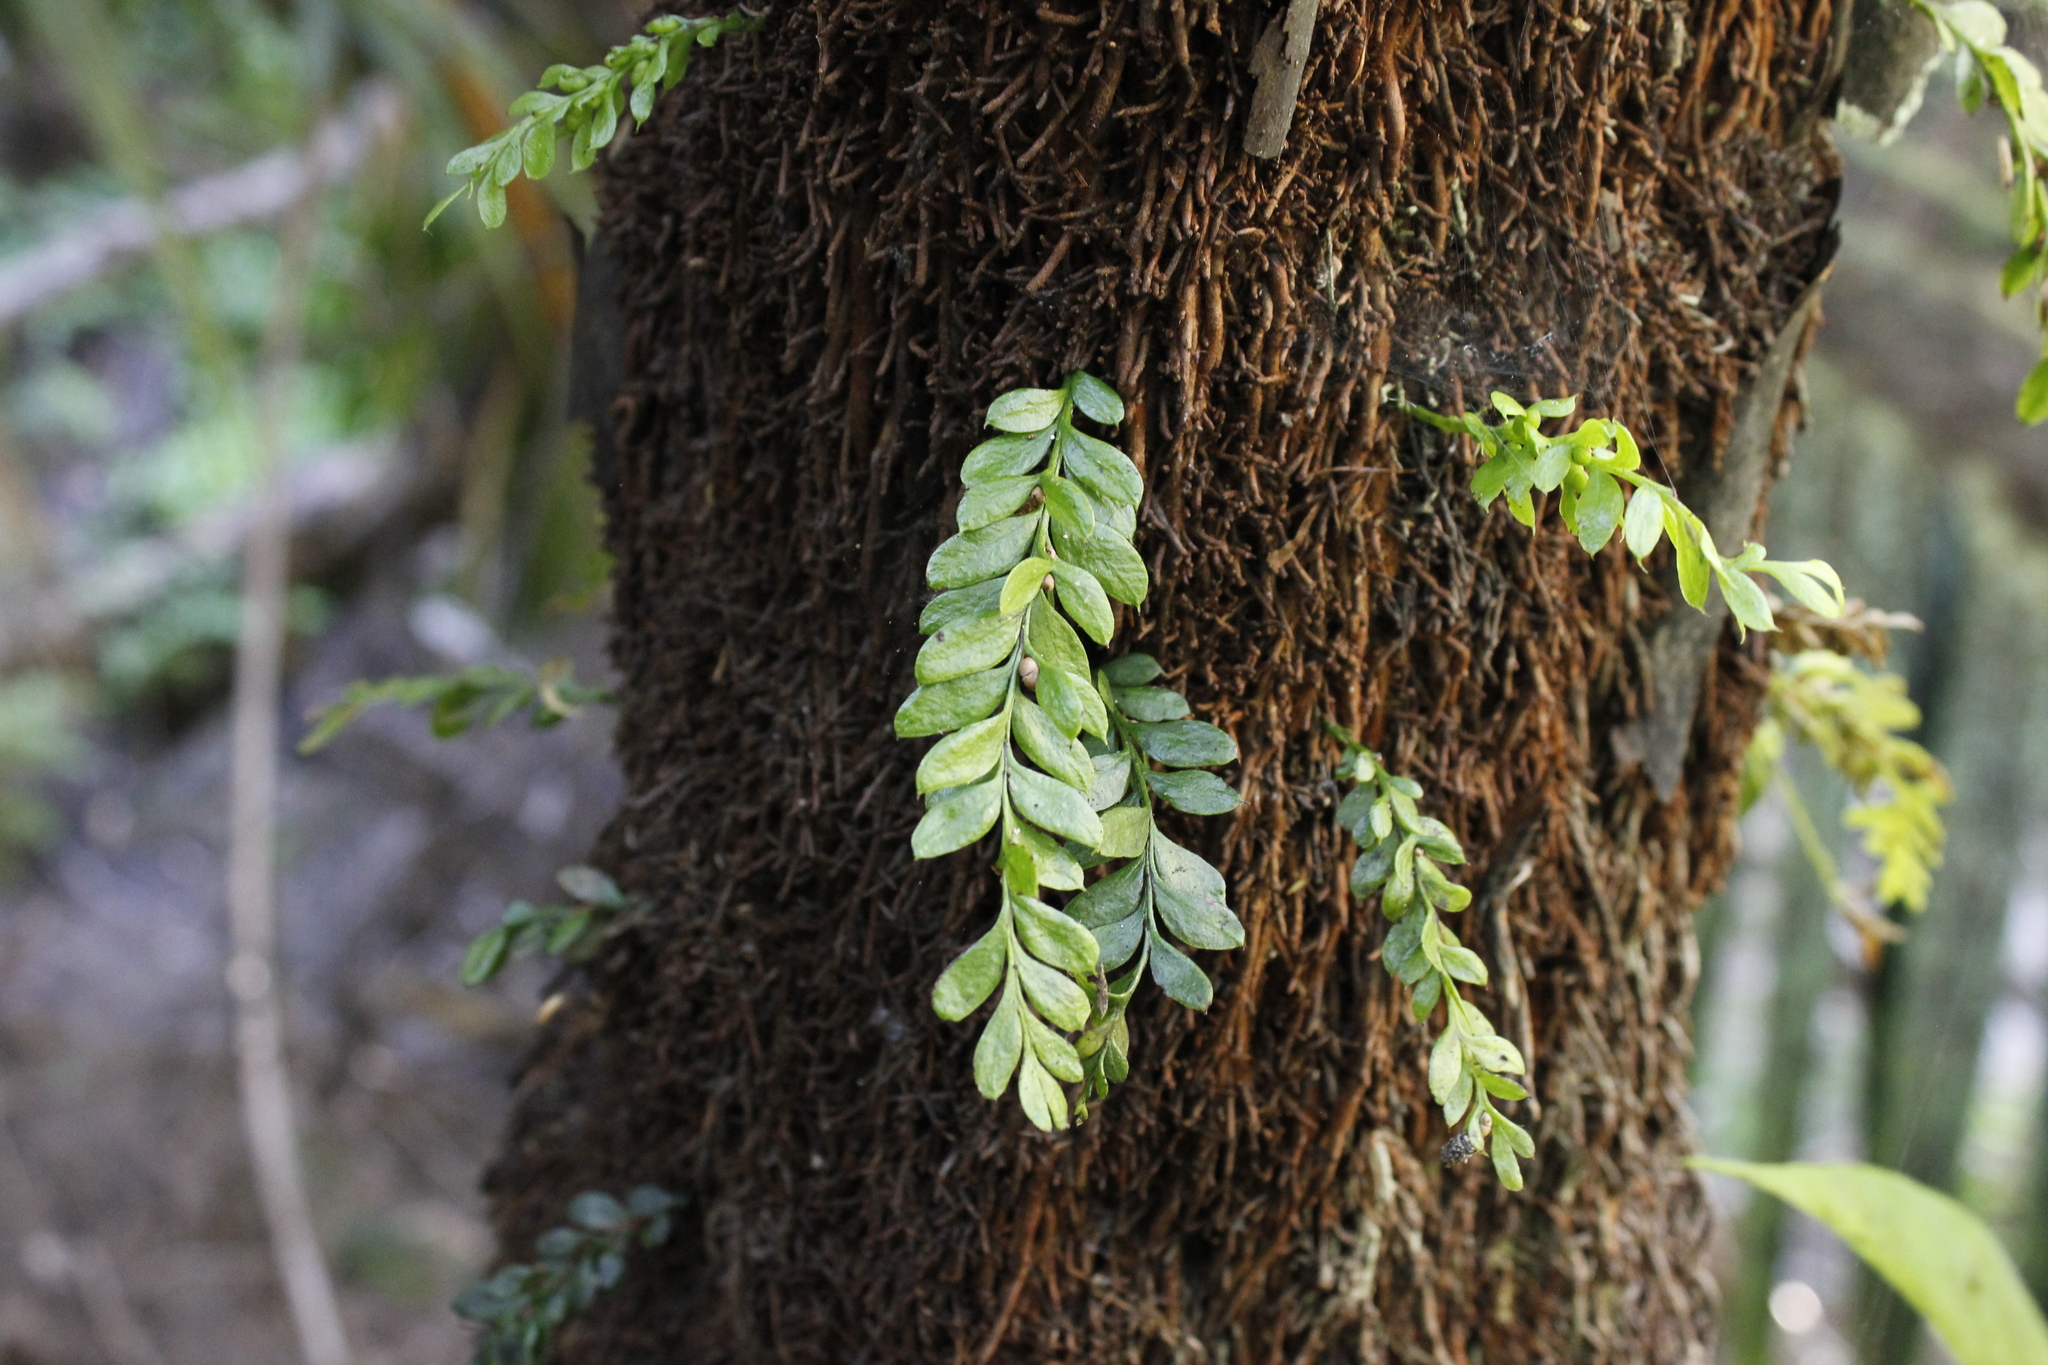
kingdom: Plantae
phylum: Tracheophyta
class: Polypodiopsida
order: Psilotales
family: Psilotaceae
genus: Tmesipteris
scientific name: Tmesipteris lanceolata
